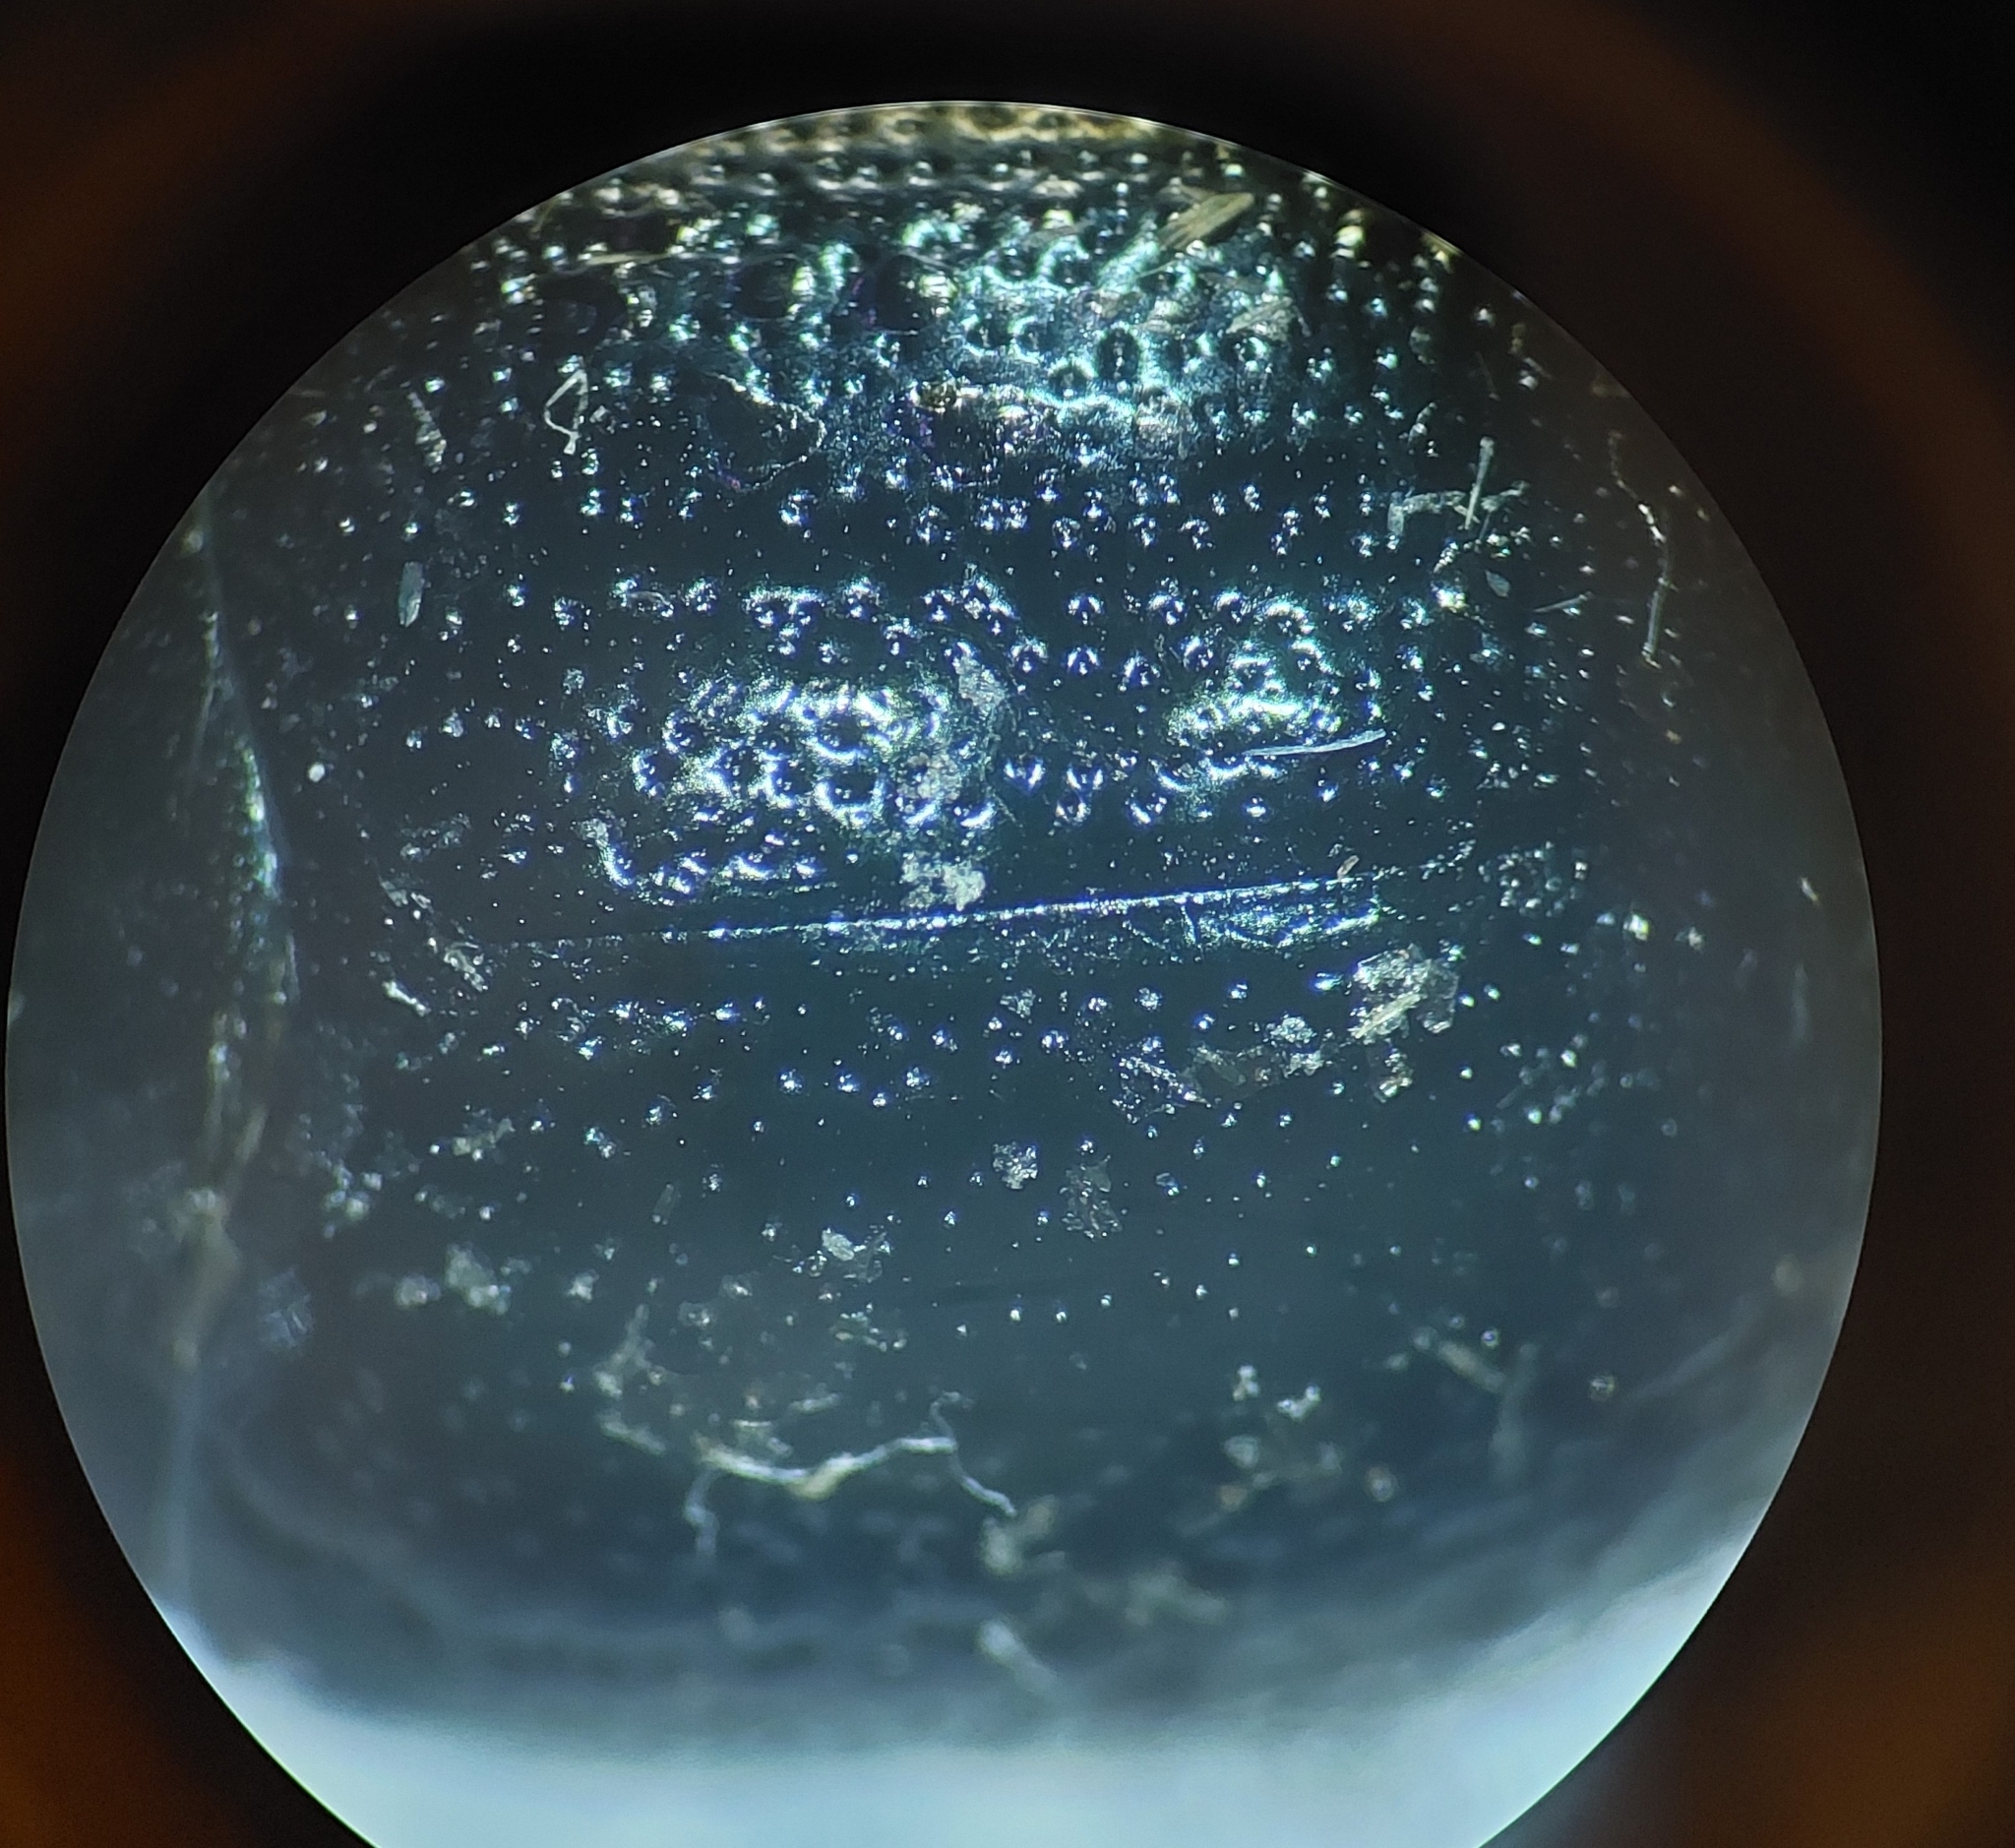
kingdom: Animalia
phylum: Arthropoda
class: Insecta
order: Coleoptera
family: Chrysomelidae
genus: Chrysolina
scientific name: Chrysolina haemoptera
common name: Plantain leaf beetle
